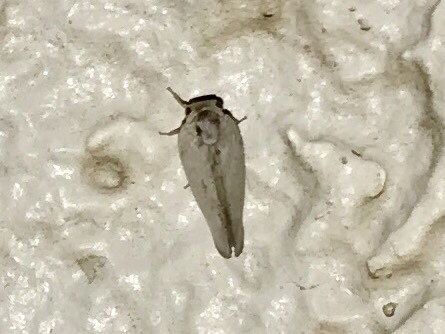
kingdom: Animalia
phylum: Arthropoda
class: Insecta
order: Hemiptera
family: Flatidae
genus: Flatormenis
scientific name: Flatormenis saucia
